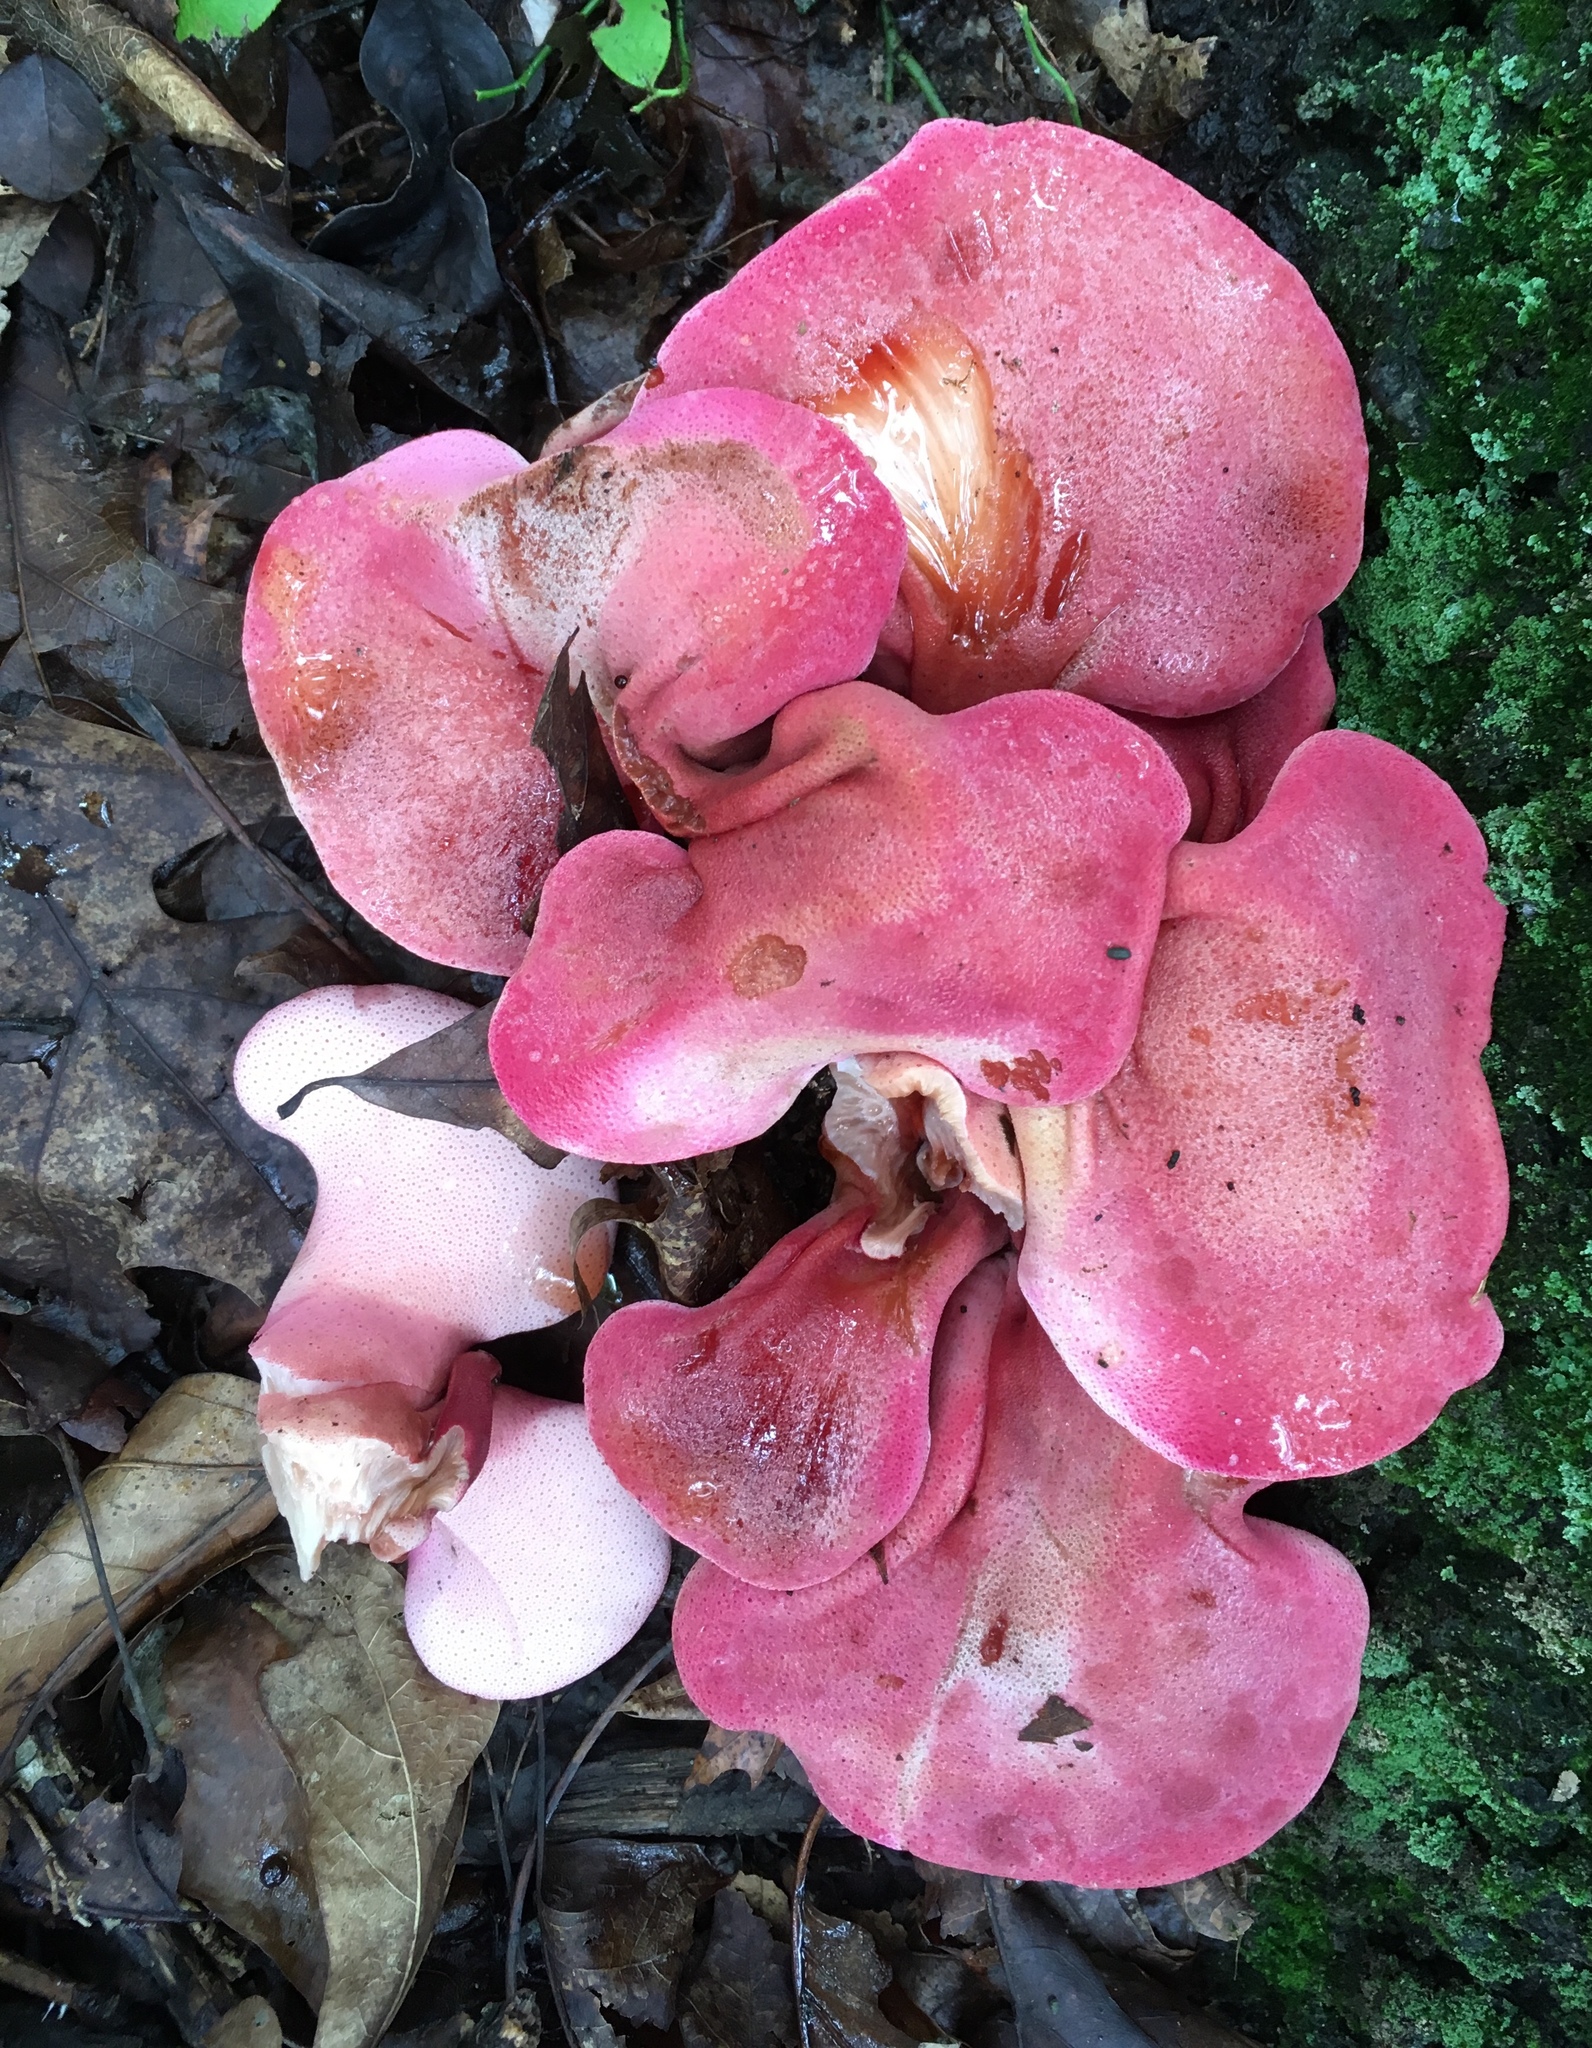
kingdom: Fungi
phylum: Basidiomycota
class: Agaricomycetes
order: Agaricales
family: Fistulinaceae
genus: Fistulina
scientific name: Fistulina guzmanii
